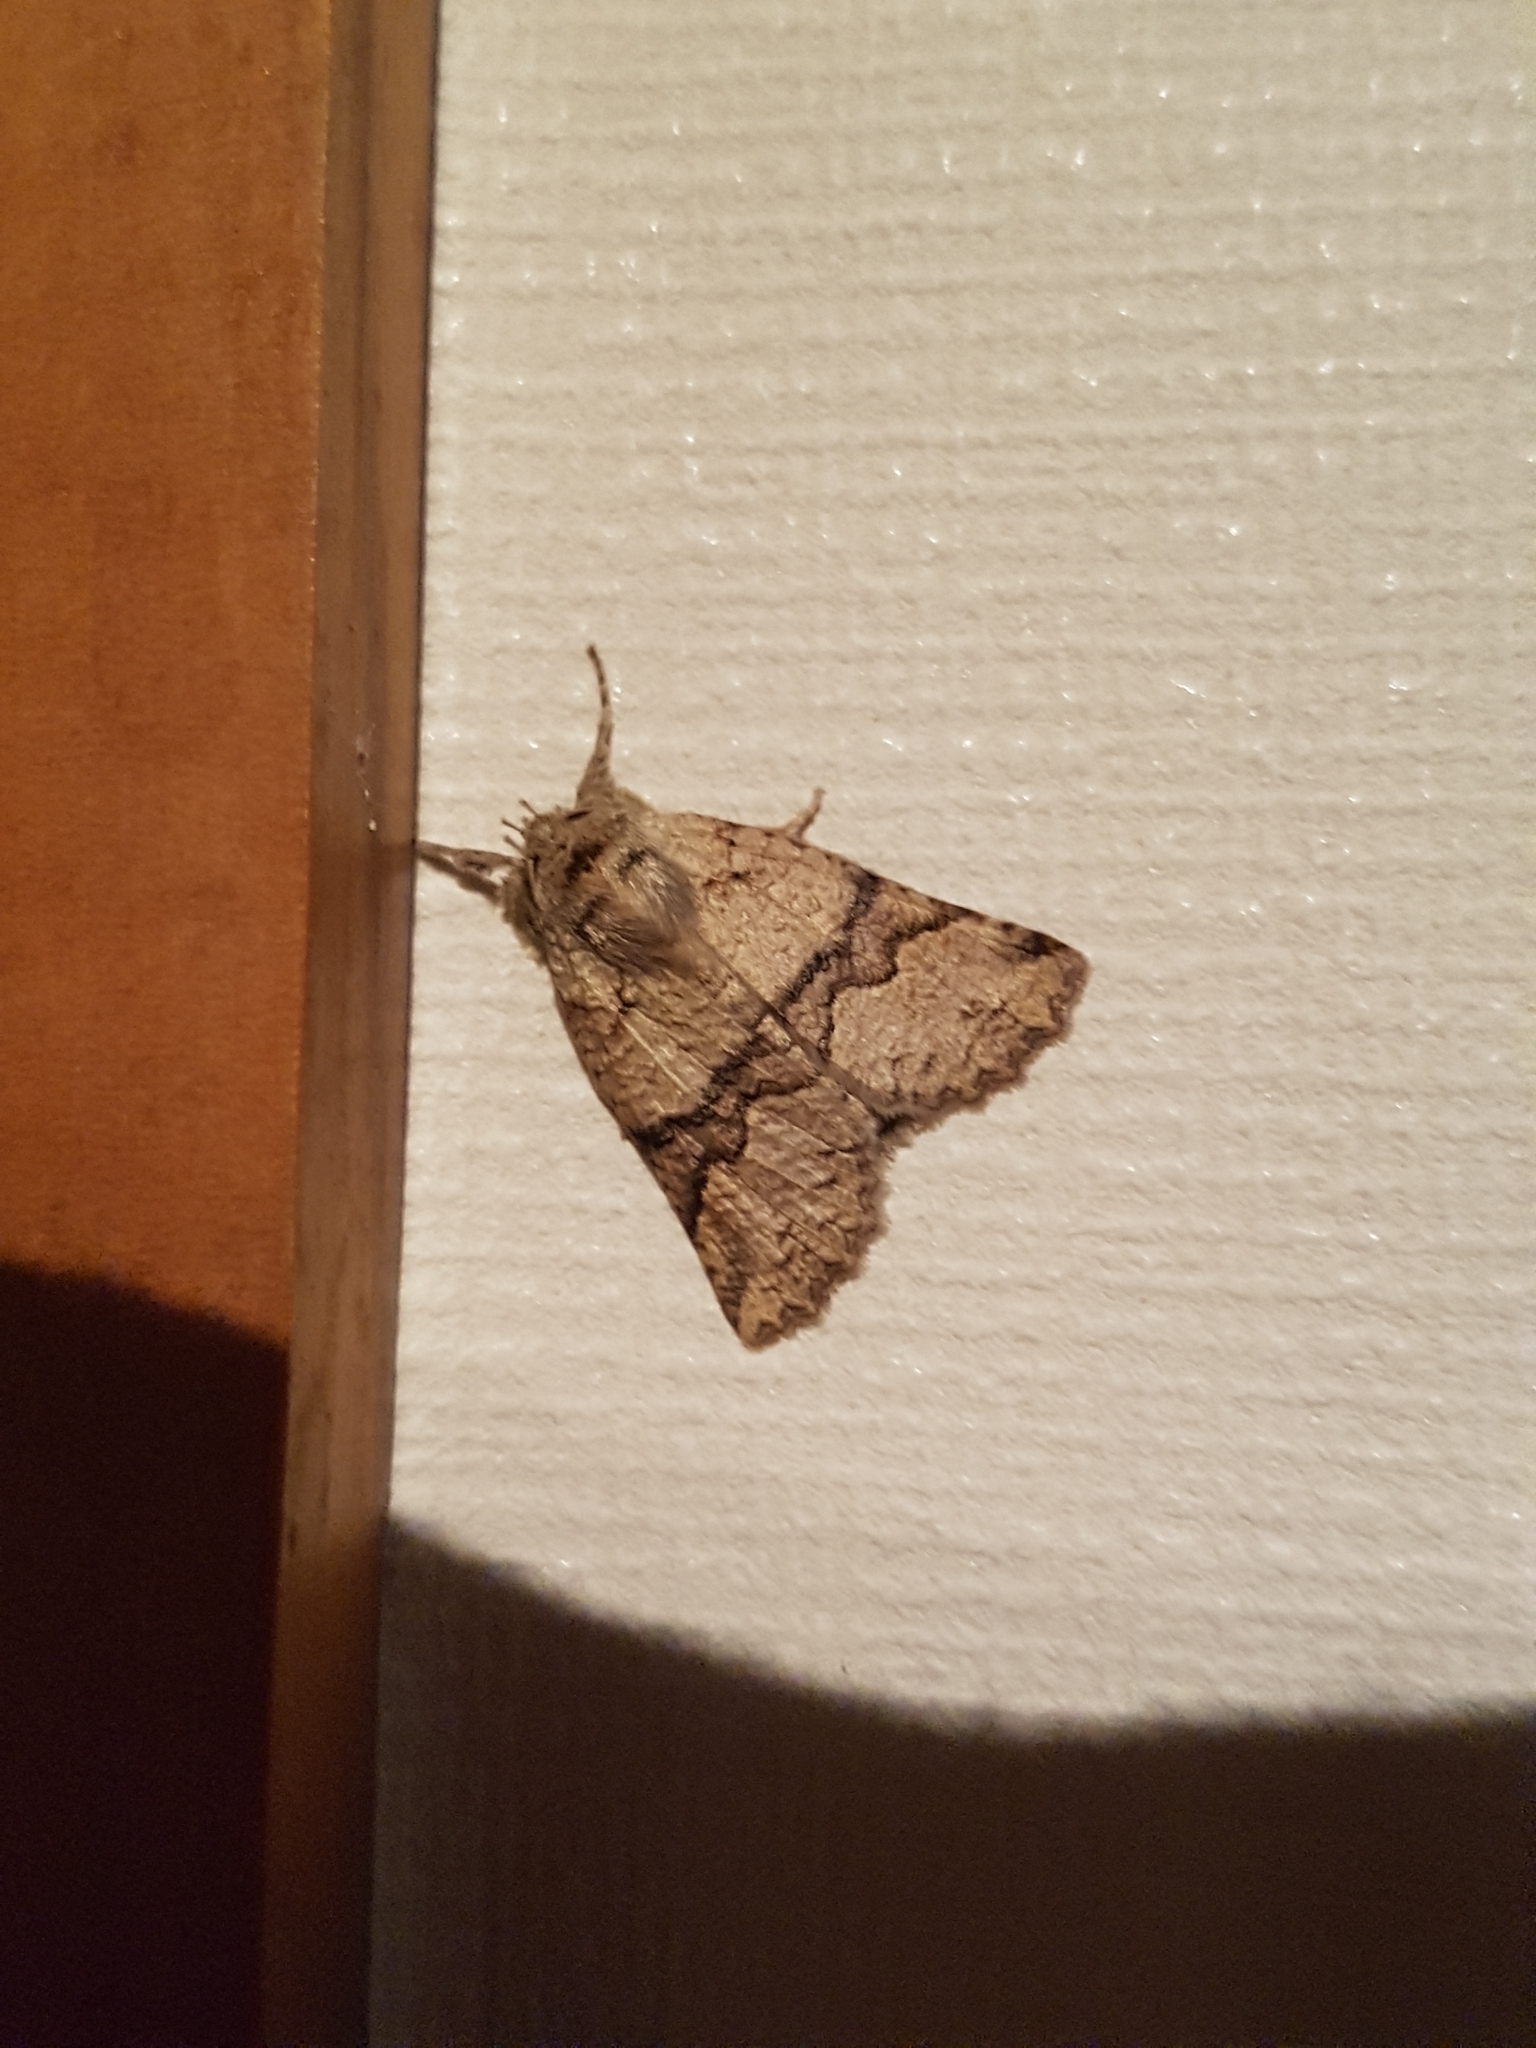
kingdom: Animalia
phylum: Arthropoda
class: Insecta
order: Lepidoptera
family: Geometridae
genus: Declana
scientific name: Declana floccosa
